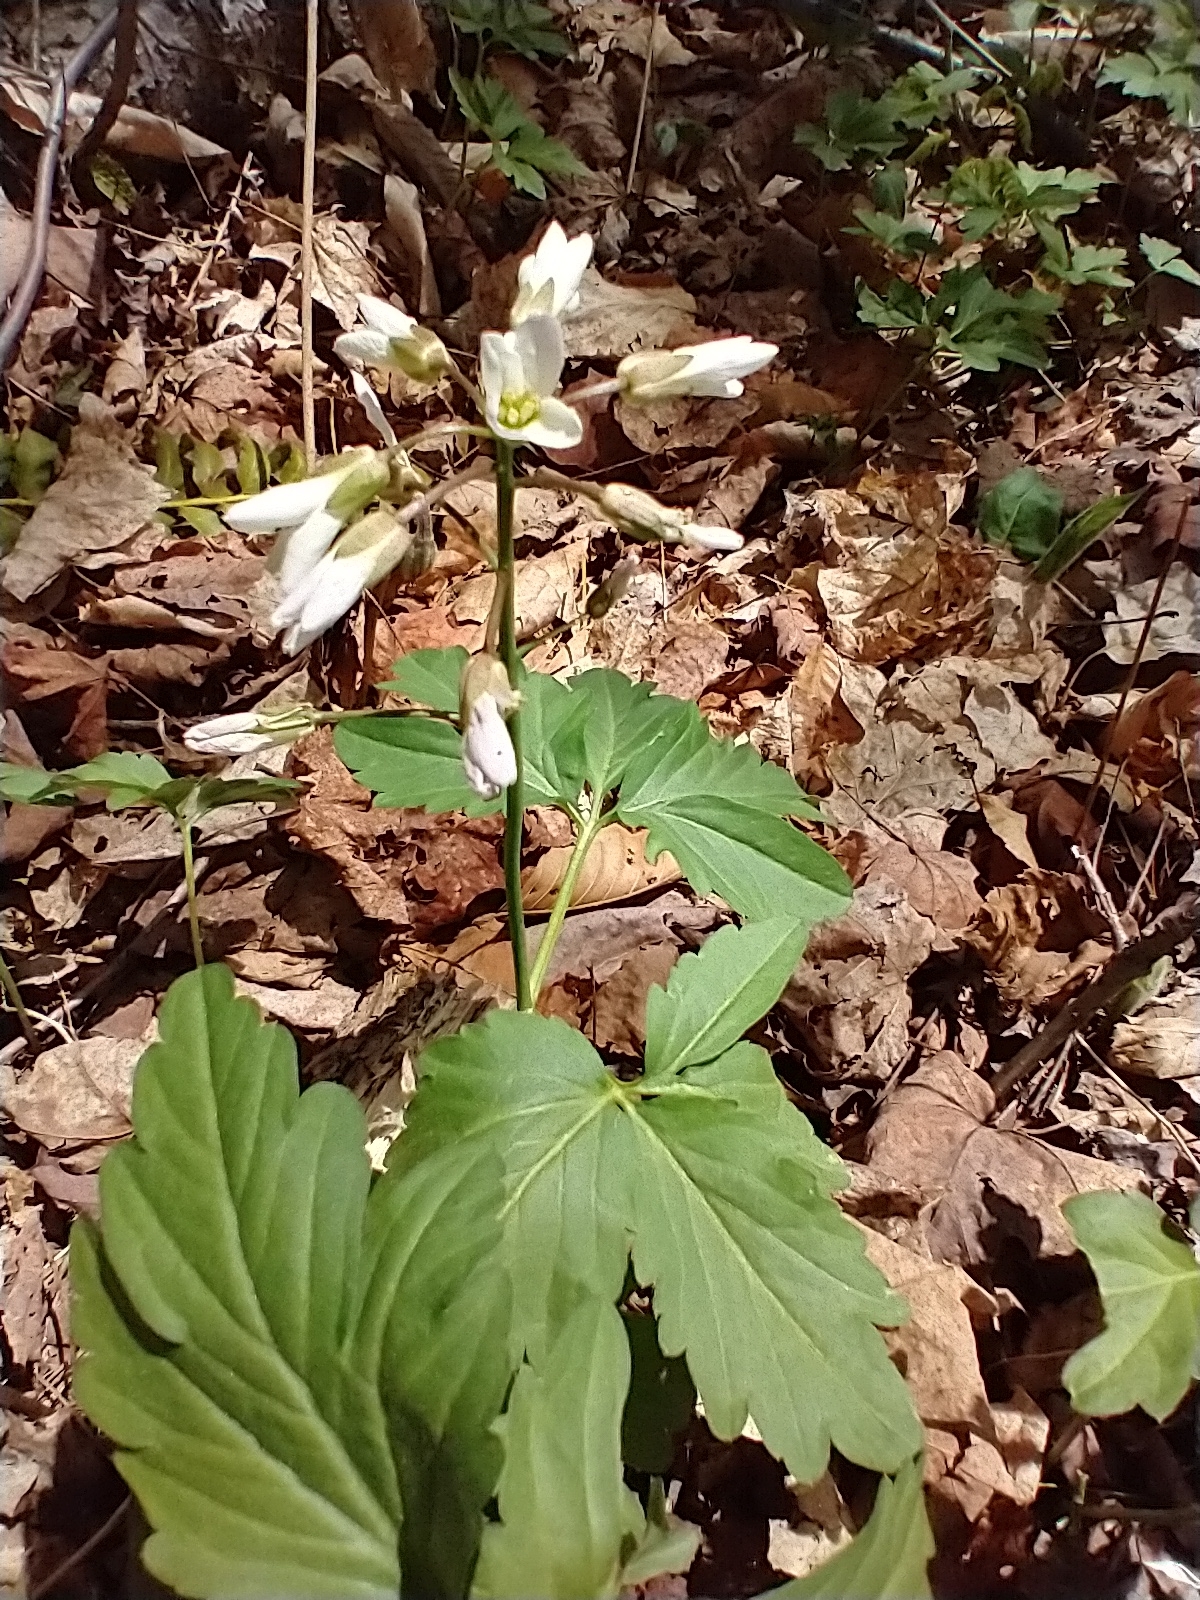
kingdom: Plantae
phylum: Tracheophyta
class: Magnoliopsida
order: Brassicales
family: Brassicaceae
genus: Cardamine
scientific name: Cardamine diphylla
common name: Broad-leaved toothwort
